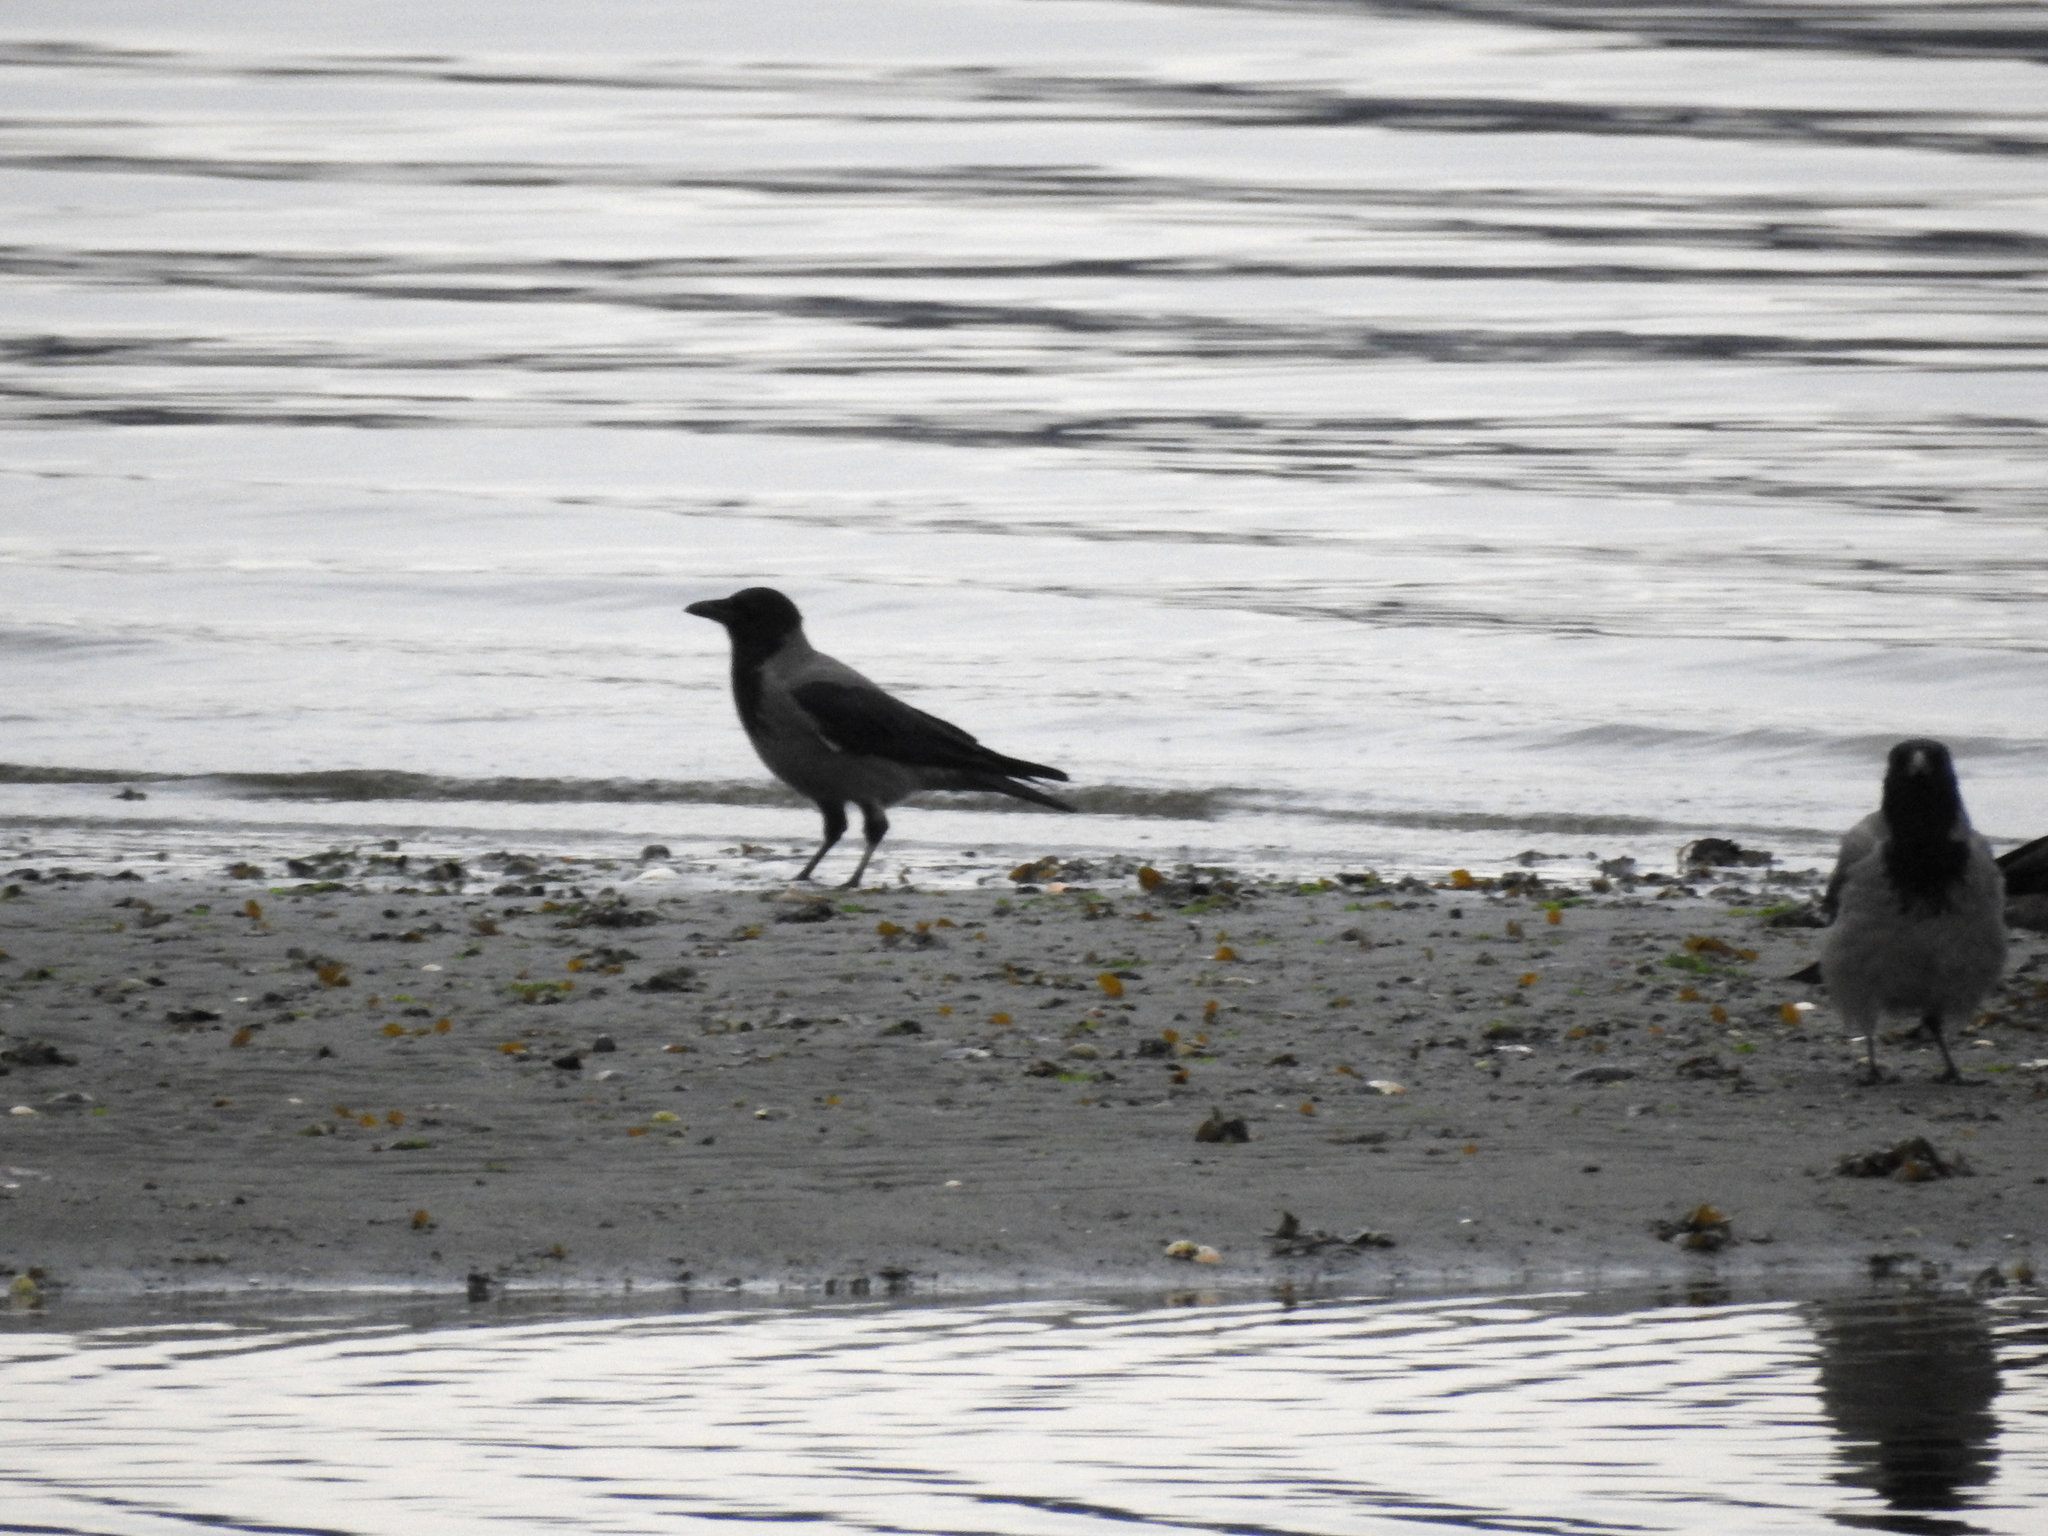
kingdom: Animalia
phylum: Chordata
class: Aves
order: Passeriformes
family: Corvidae
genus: Corvus
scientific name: Corvus cornix
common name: Hooded crow
